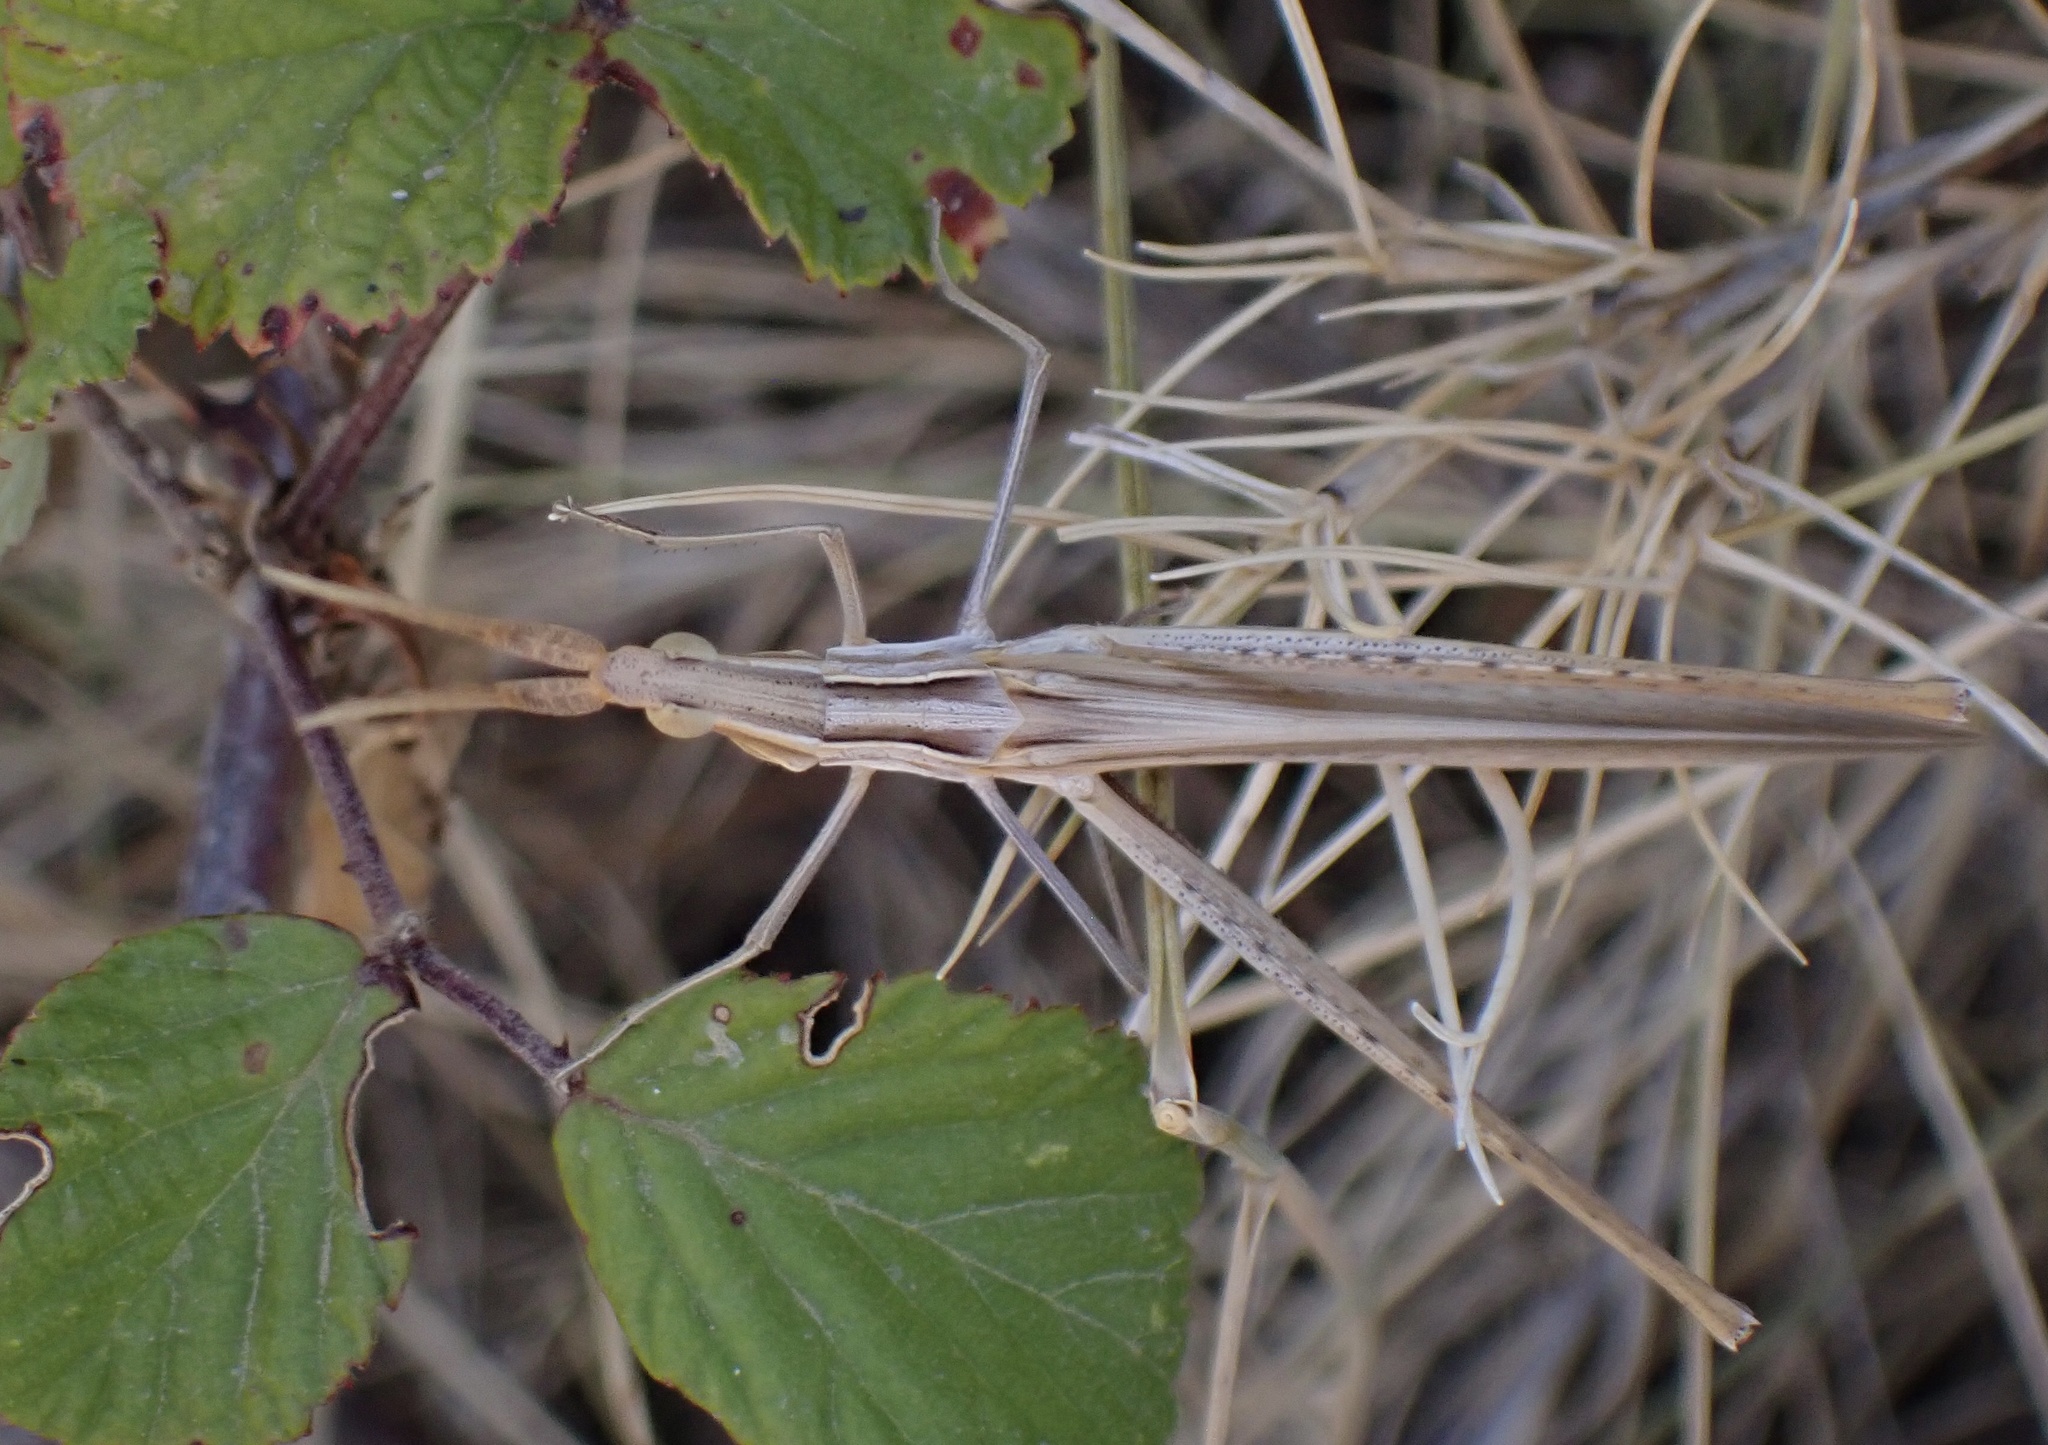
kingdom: Animalia
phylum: Arthropoda
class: Insecta
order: Orthoptera
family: Acrididae
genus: Acrida
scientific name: Acrida ungarica
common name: Common cone-headed grasshopper
